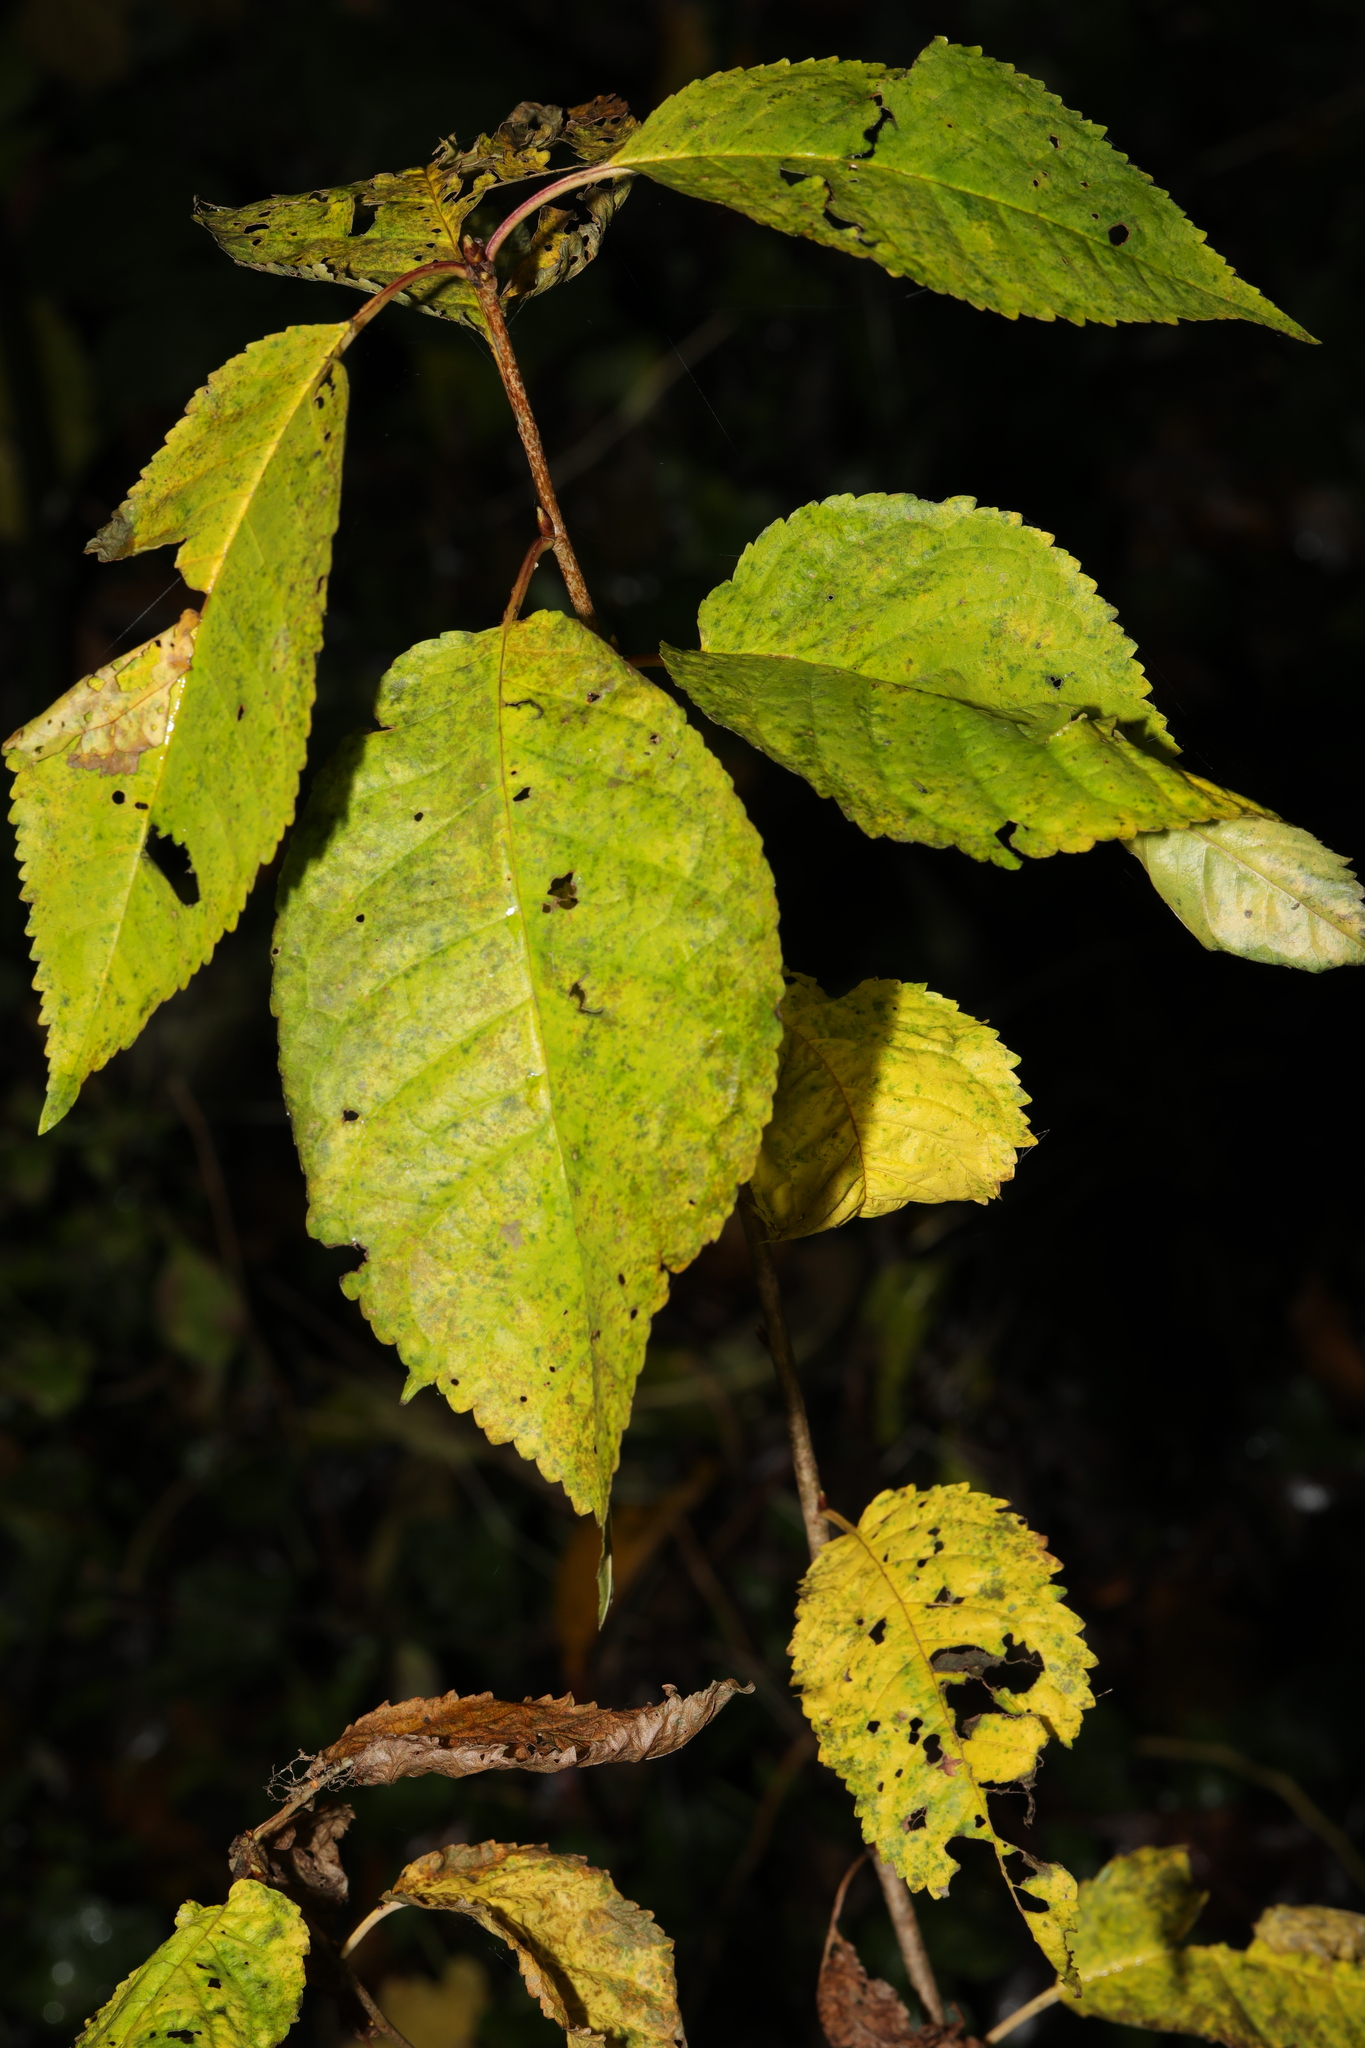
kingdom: Plantae
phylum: Tracheophyta
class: Magnoliopsida
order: Rosales
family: Rosaceae
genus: Prunus
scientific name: Prunus avium
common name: Sweet cherry
